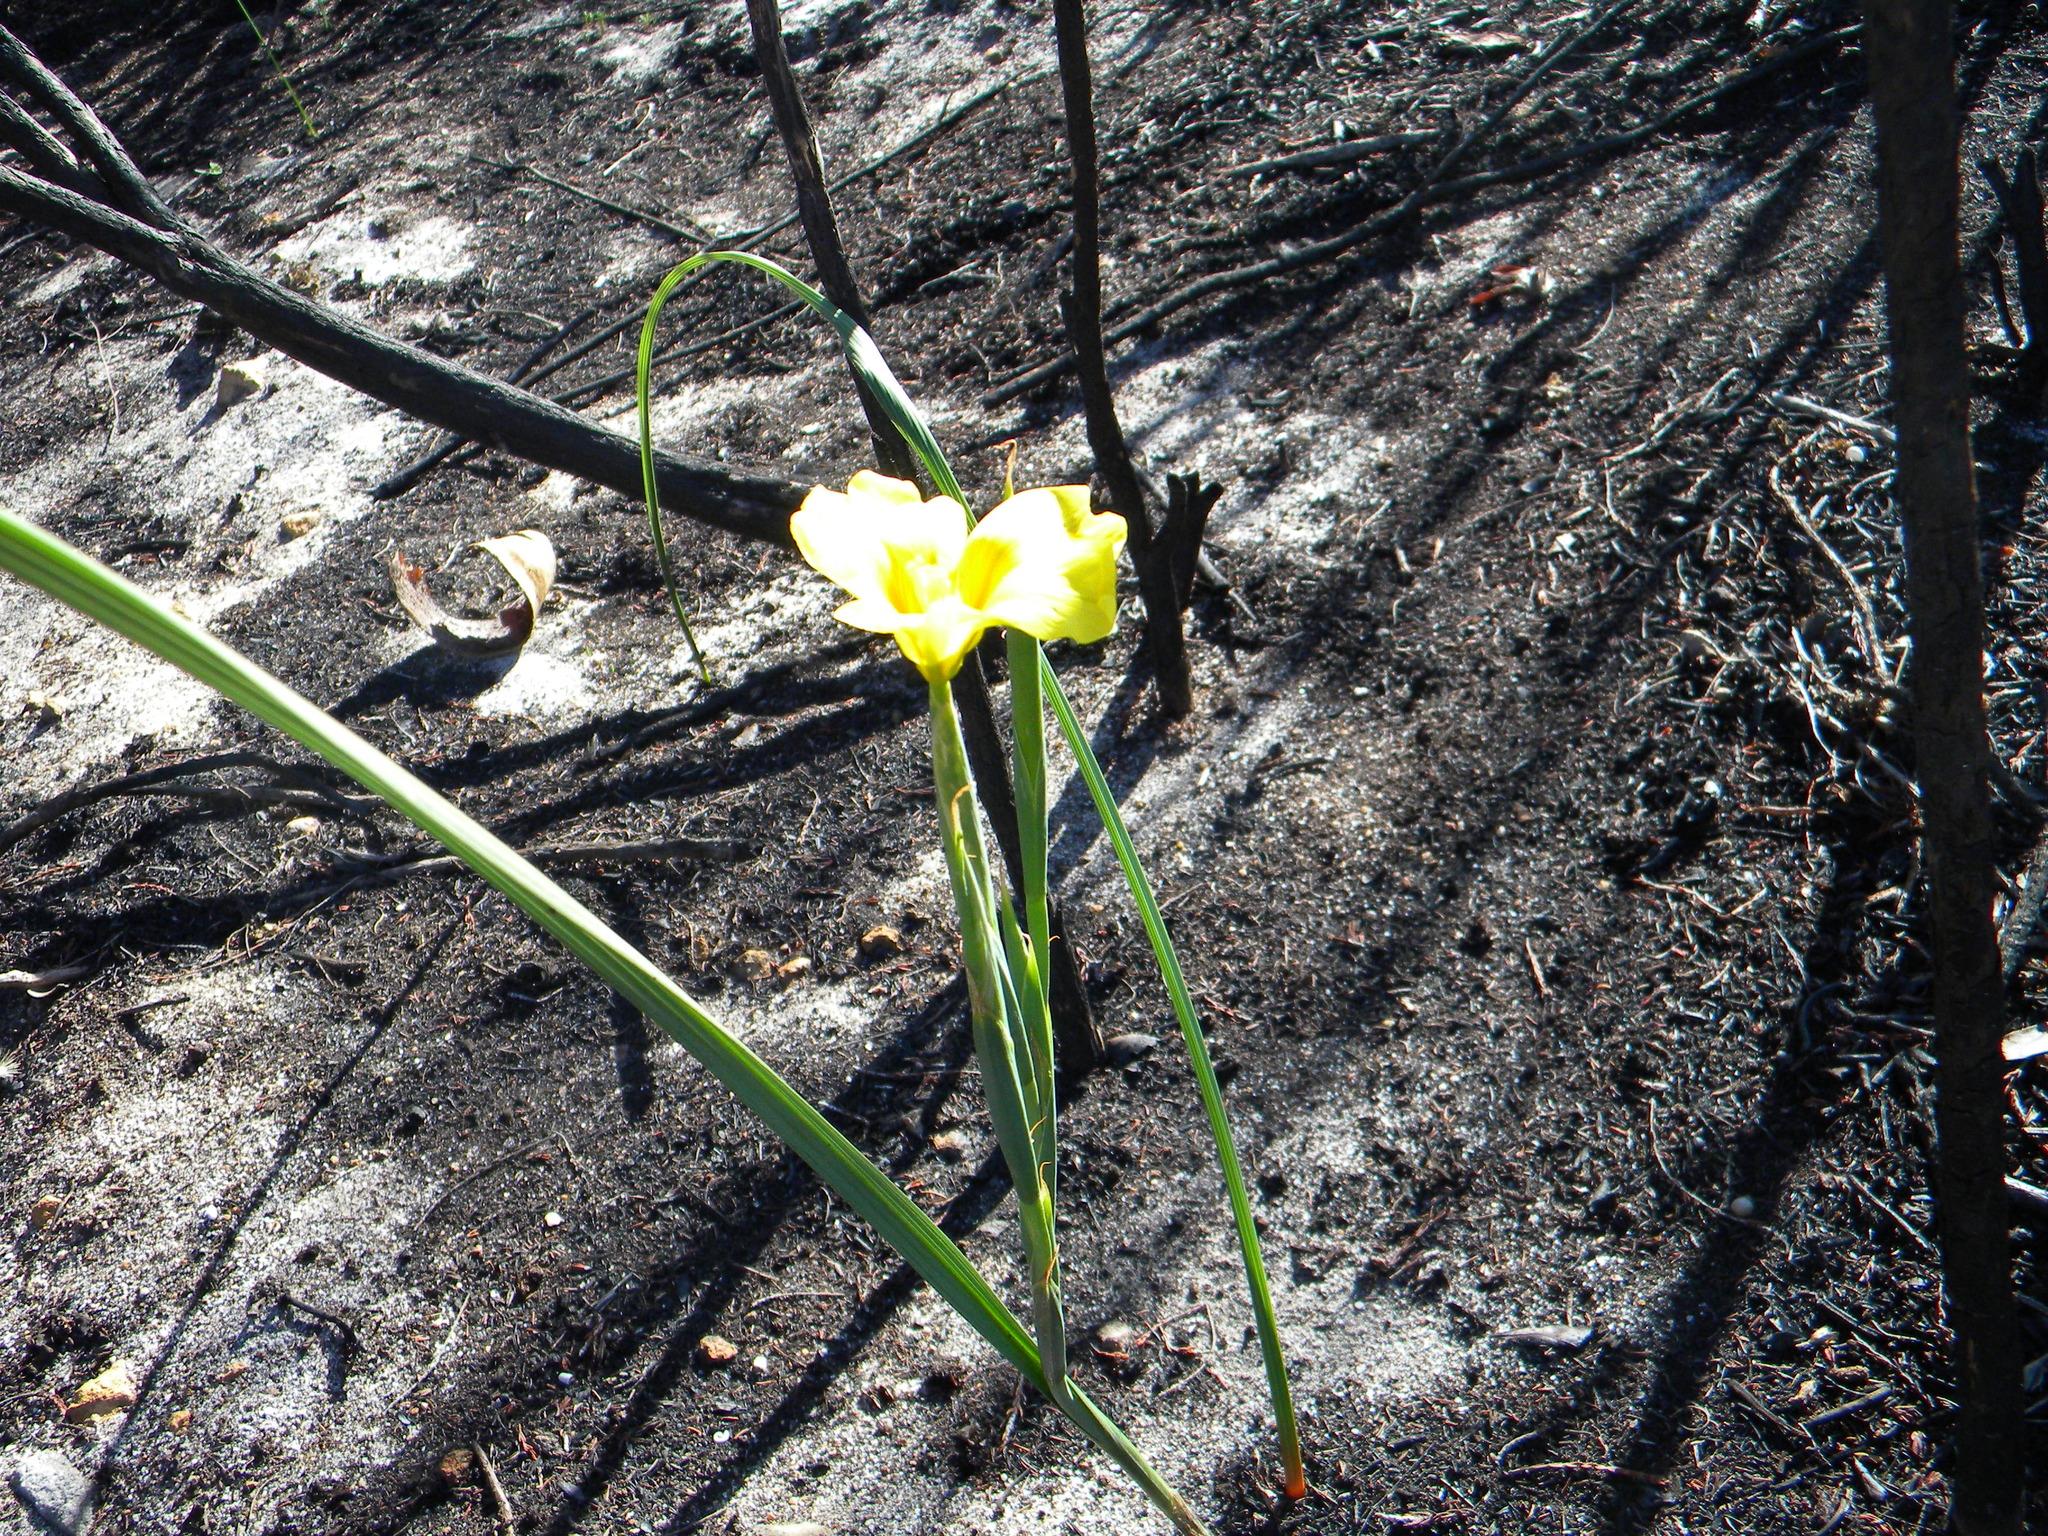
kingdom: Plantae
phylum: Tracheophyta
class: Liliopsida
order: Asparagales
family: Iridaceae
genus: Moraea
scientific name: Moraea ochroleuca
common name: Red tulp
